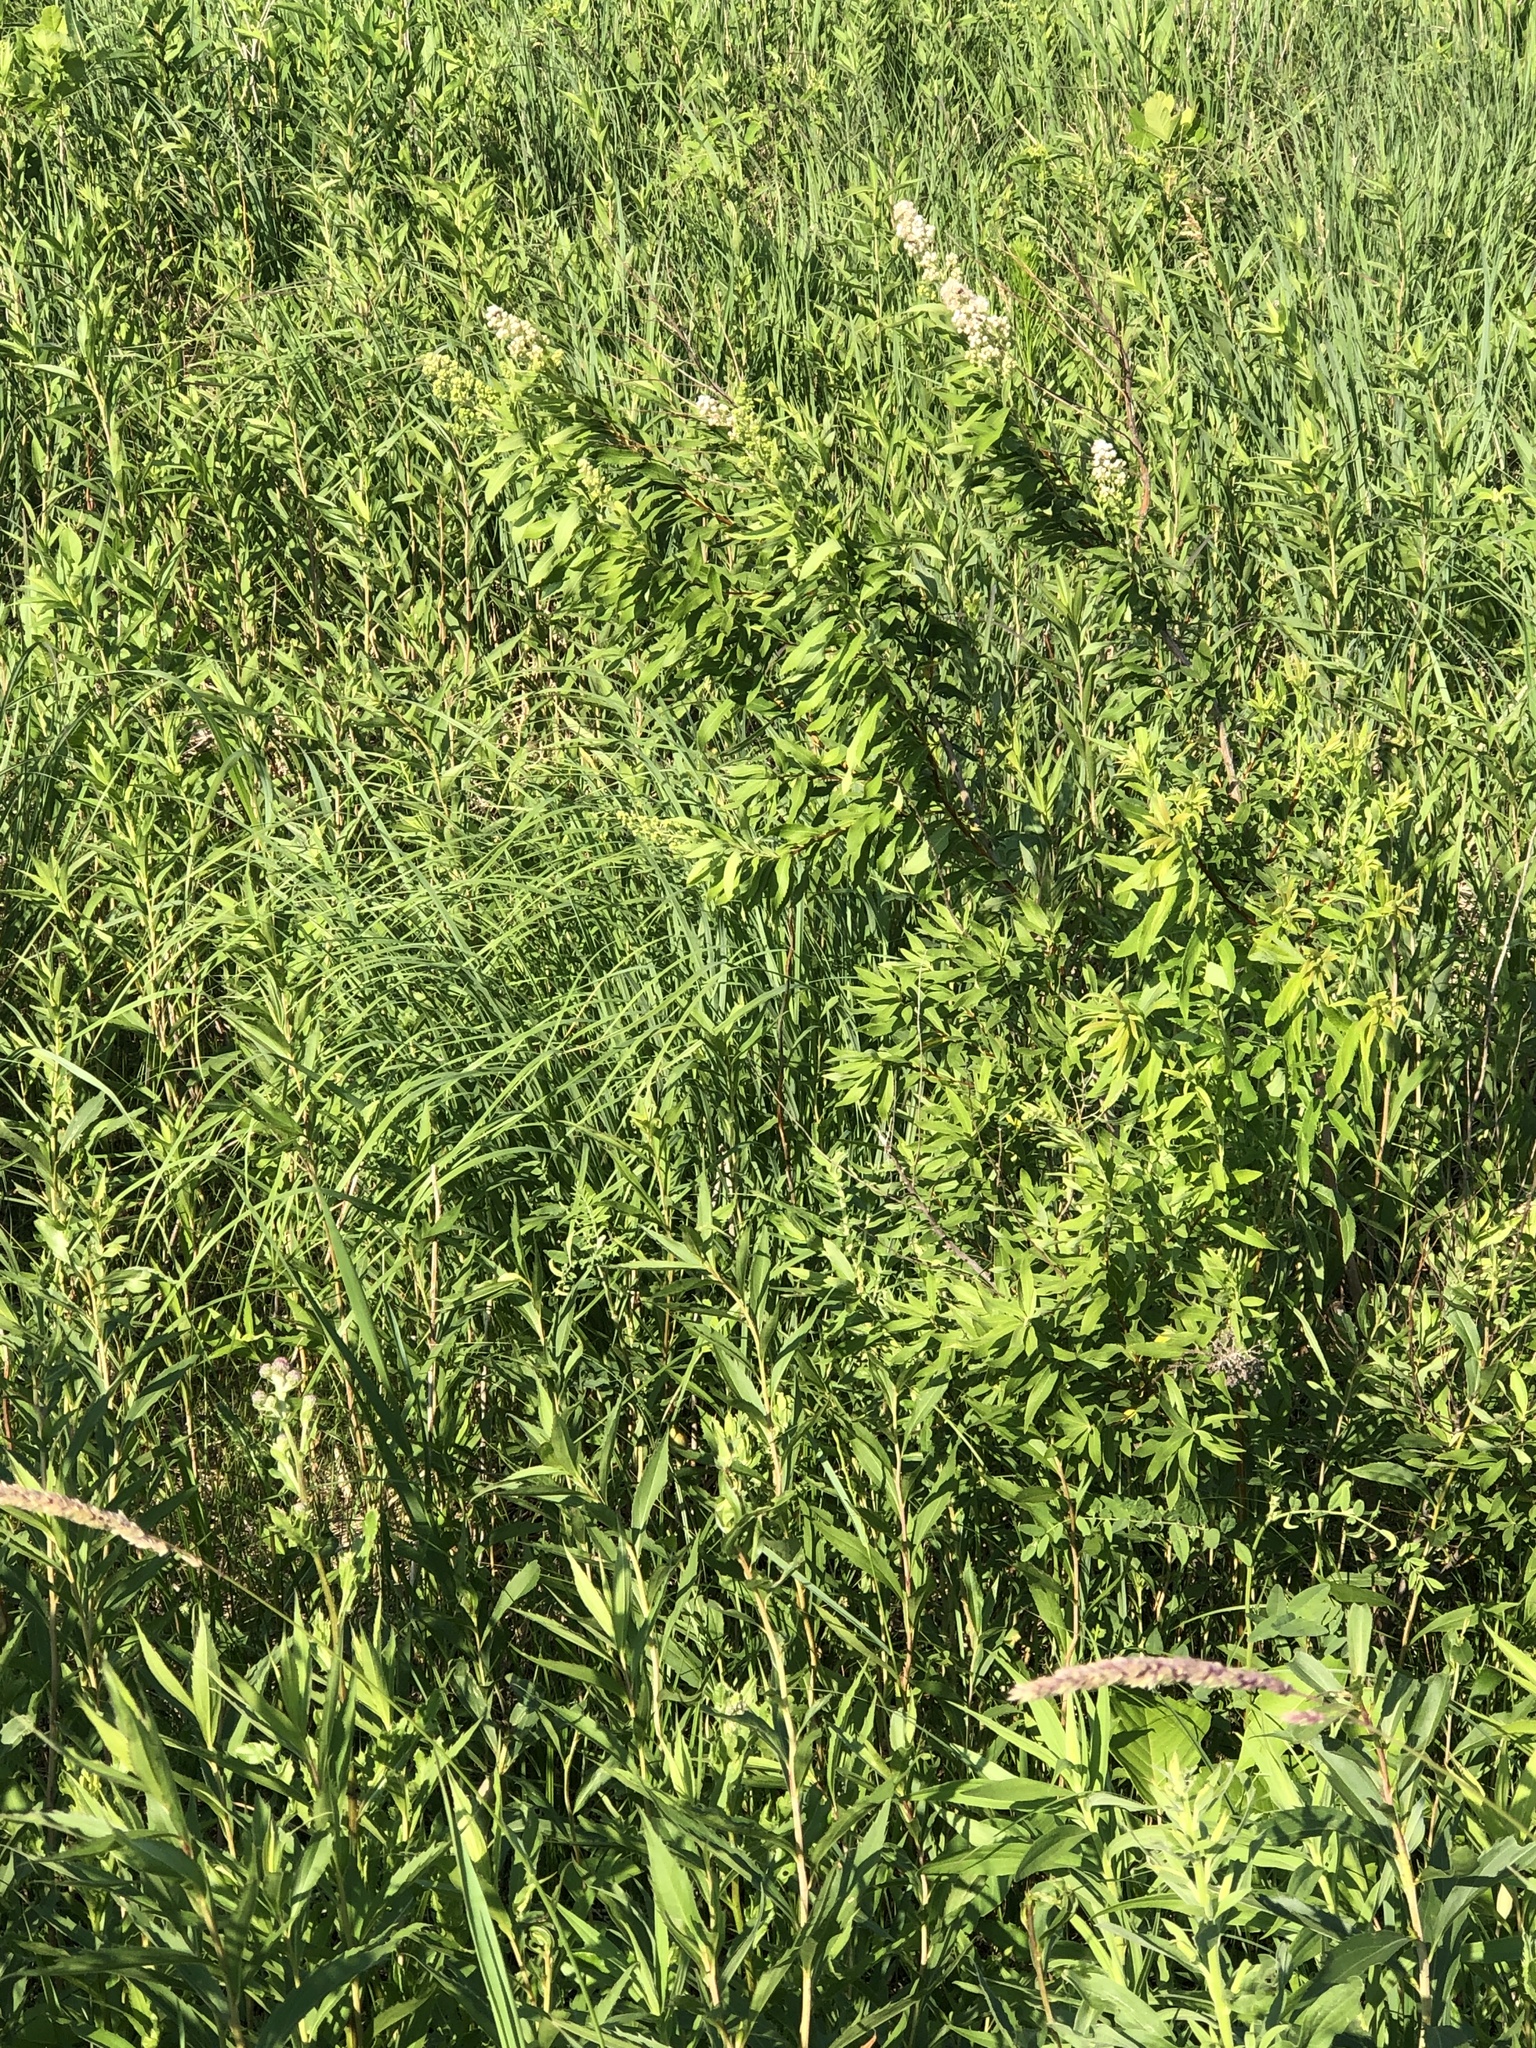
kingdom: Plantae
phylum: Tracheophyta
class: Magnoliopsida
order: Rosales
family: Rosaceae
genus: Spiraea
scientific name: Spiraea alba
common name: Pale bridewort
